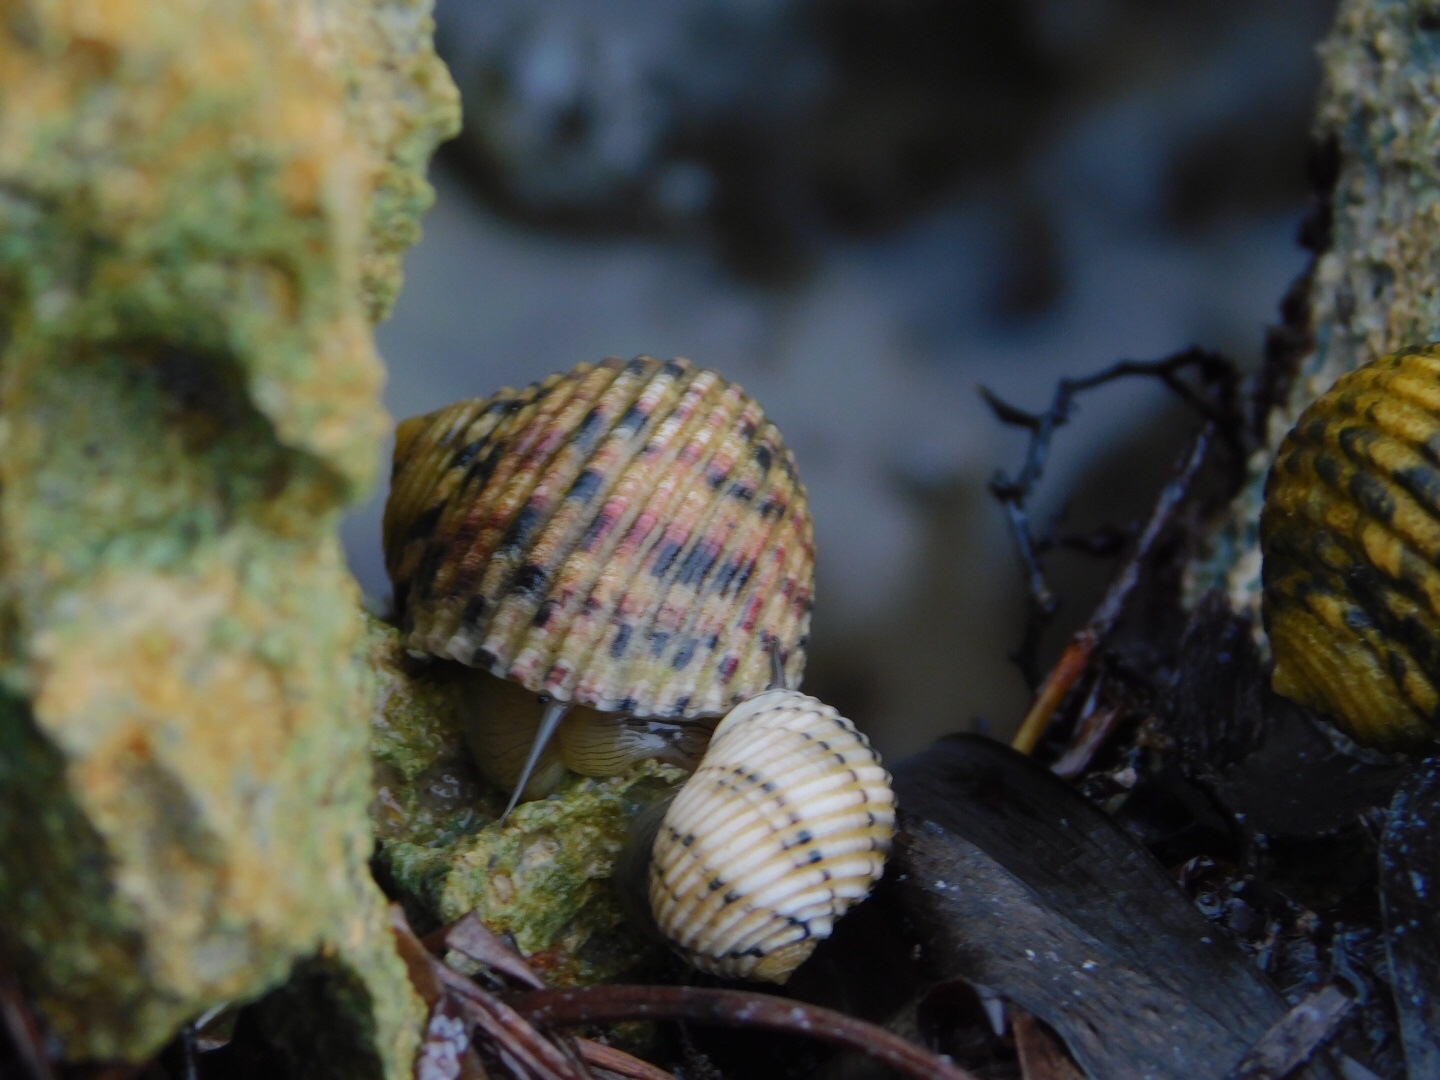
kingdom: Animalia
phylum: Mollusca
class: Gastropoda
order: Cycloneritida
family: Neritidae
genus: Nerita
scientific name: Nerita versicolor
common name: Four-tooth nerite
